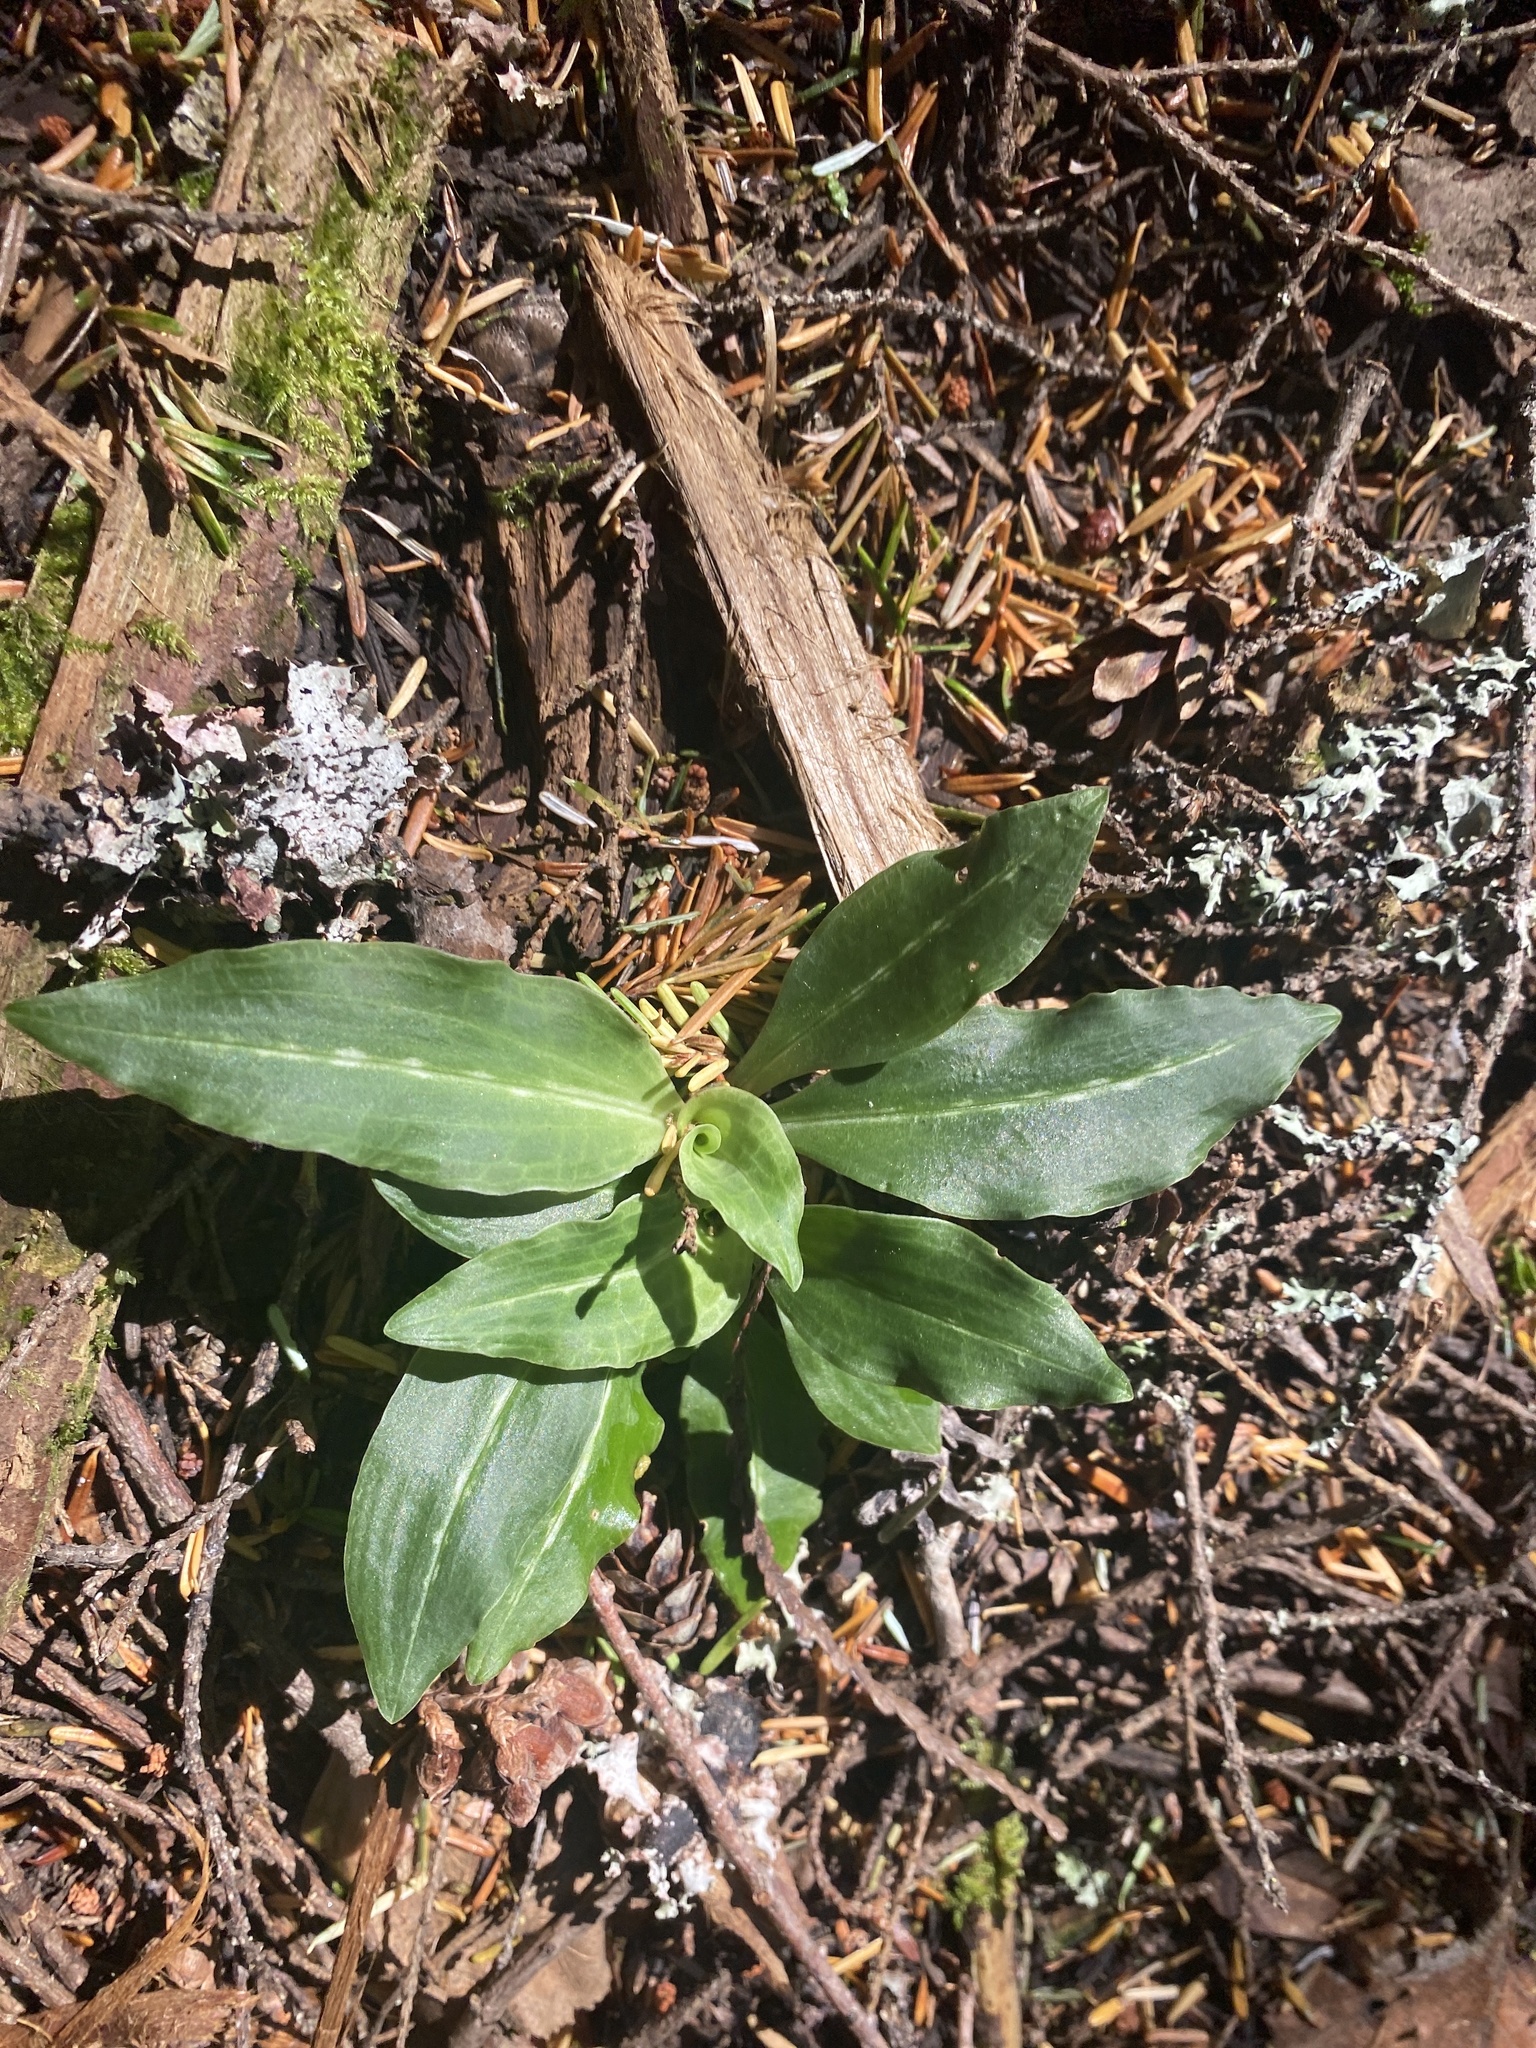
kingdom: Plantae
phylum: Tracheophyta
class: Liliopsida
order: Asparagales
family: Orchidaceae
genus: Goodyera
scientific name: Goodyera oblongifolia
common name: Giant rattlesnake-plantain
